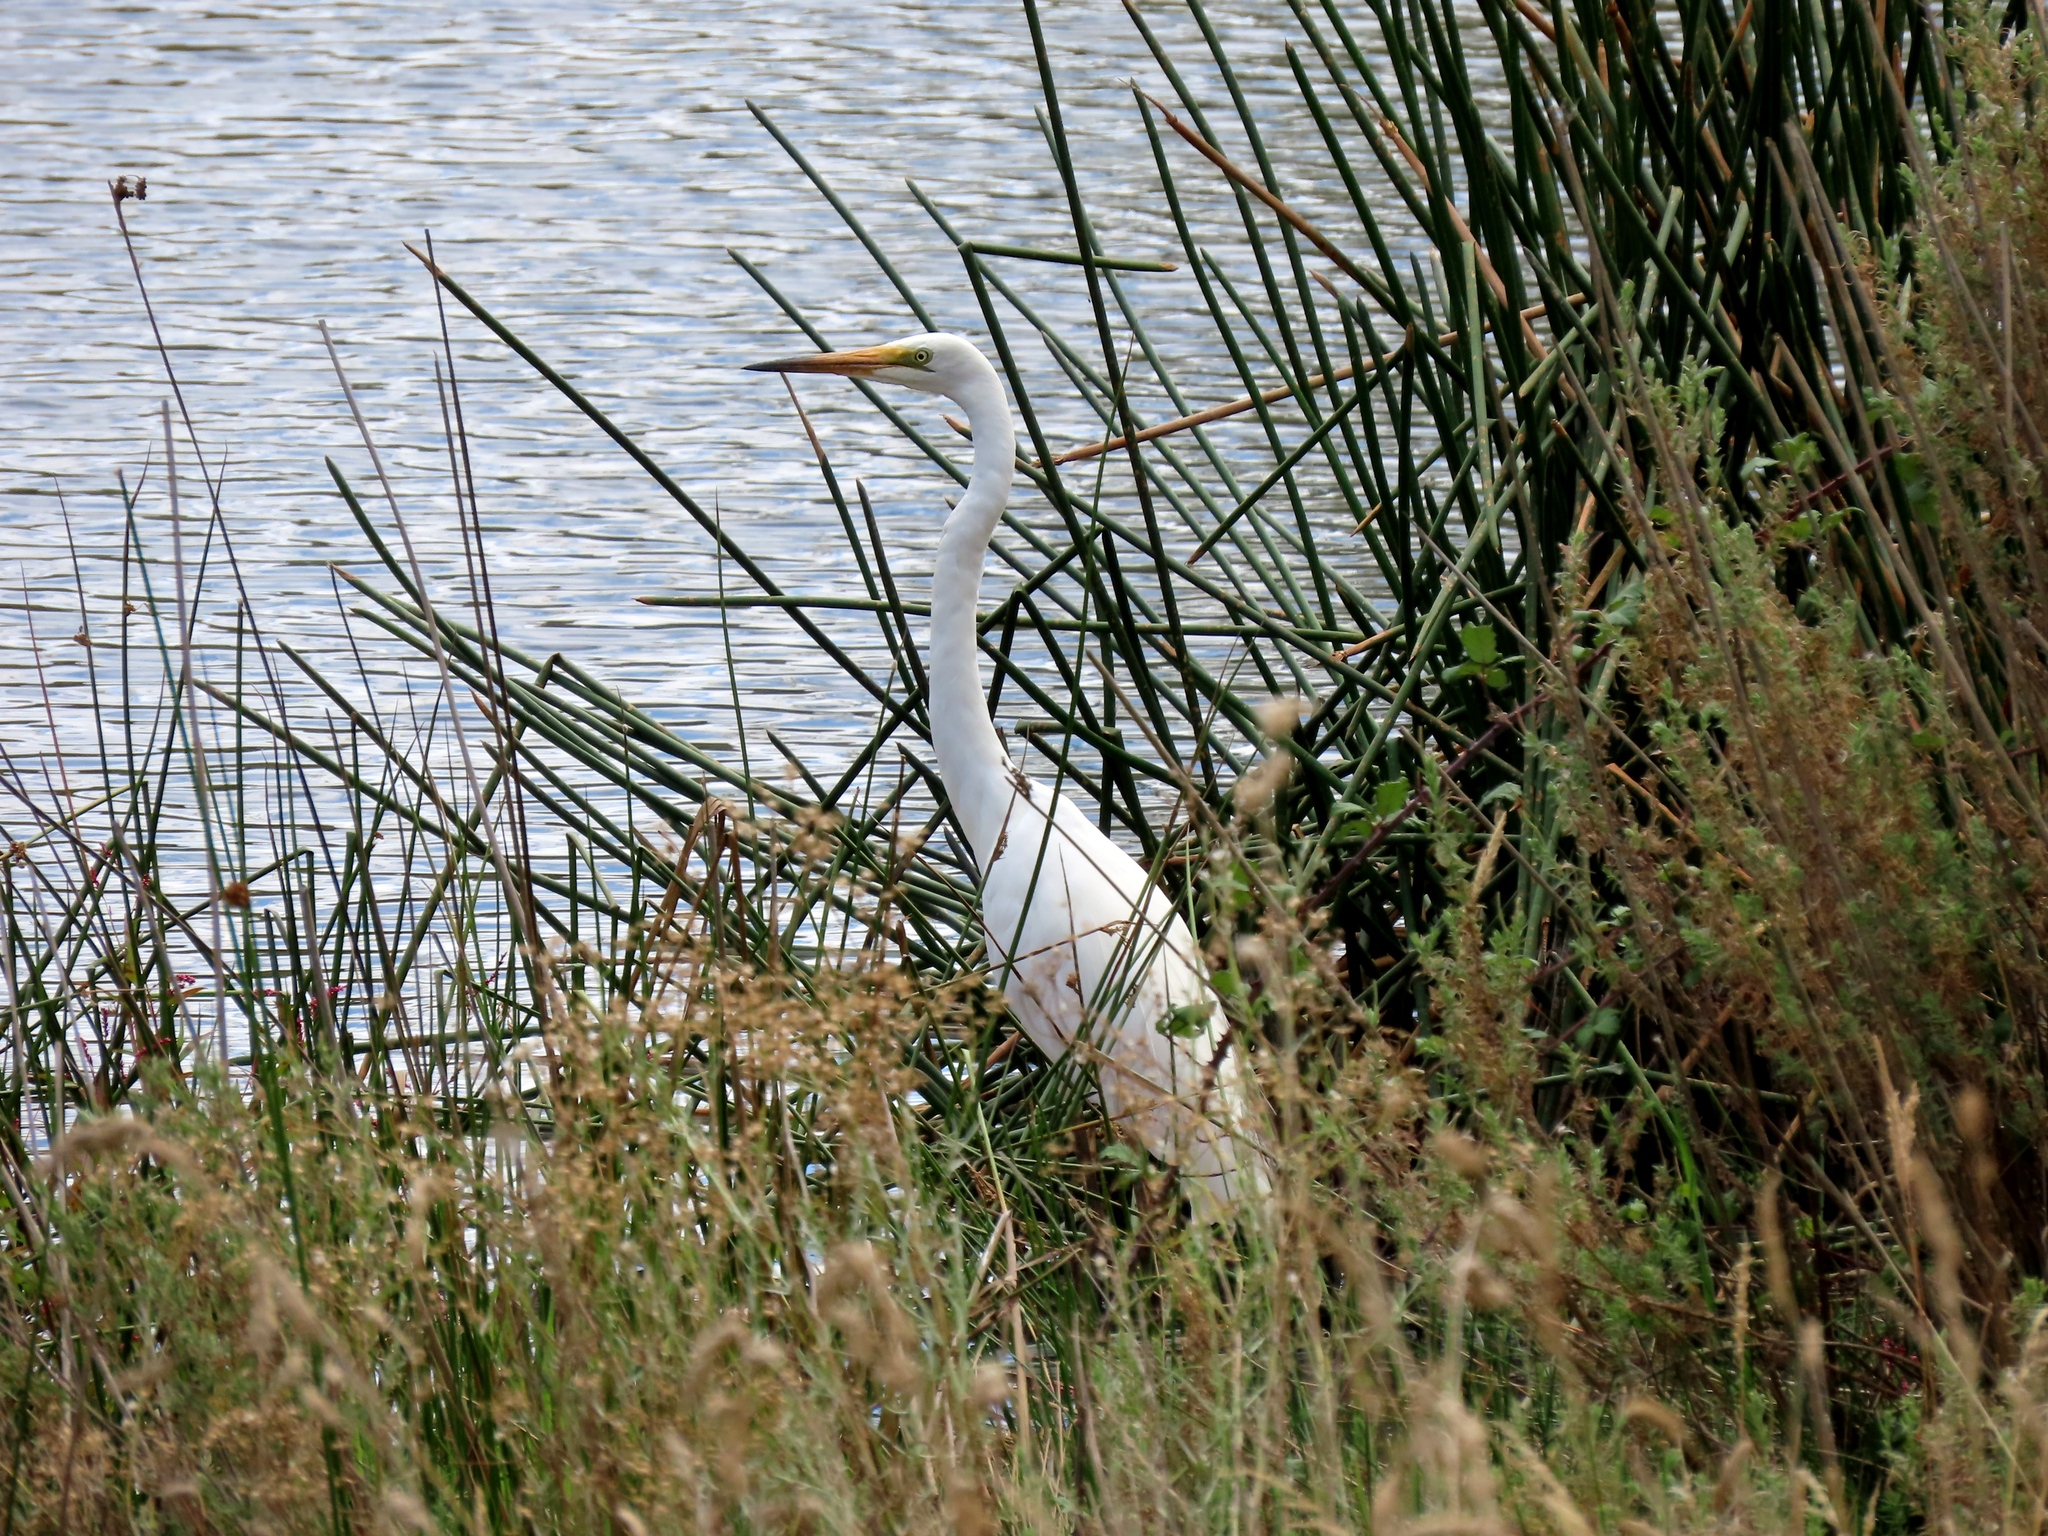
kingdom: Animalia
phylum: Chordata
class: Aves
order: Pelecaniformes
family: Ardeidae
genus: Ardea
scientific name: Ardea alba
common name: Great egret
